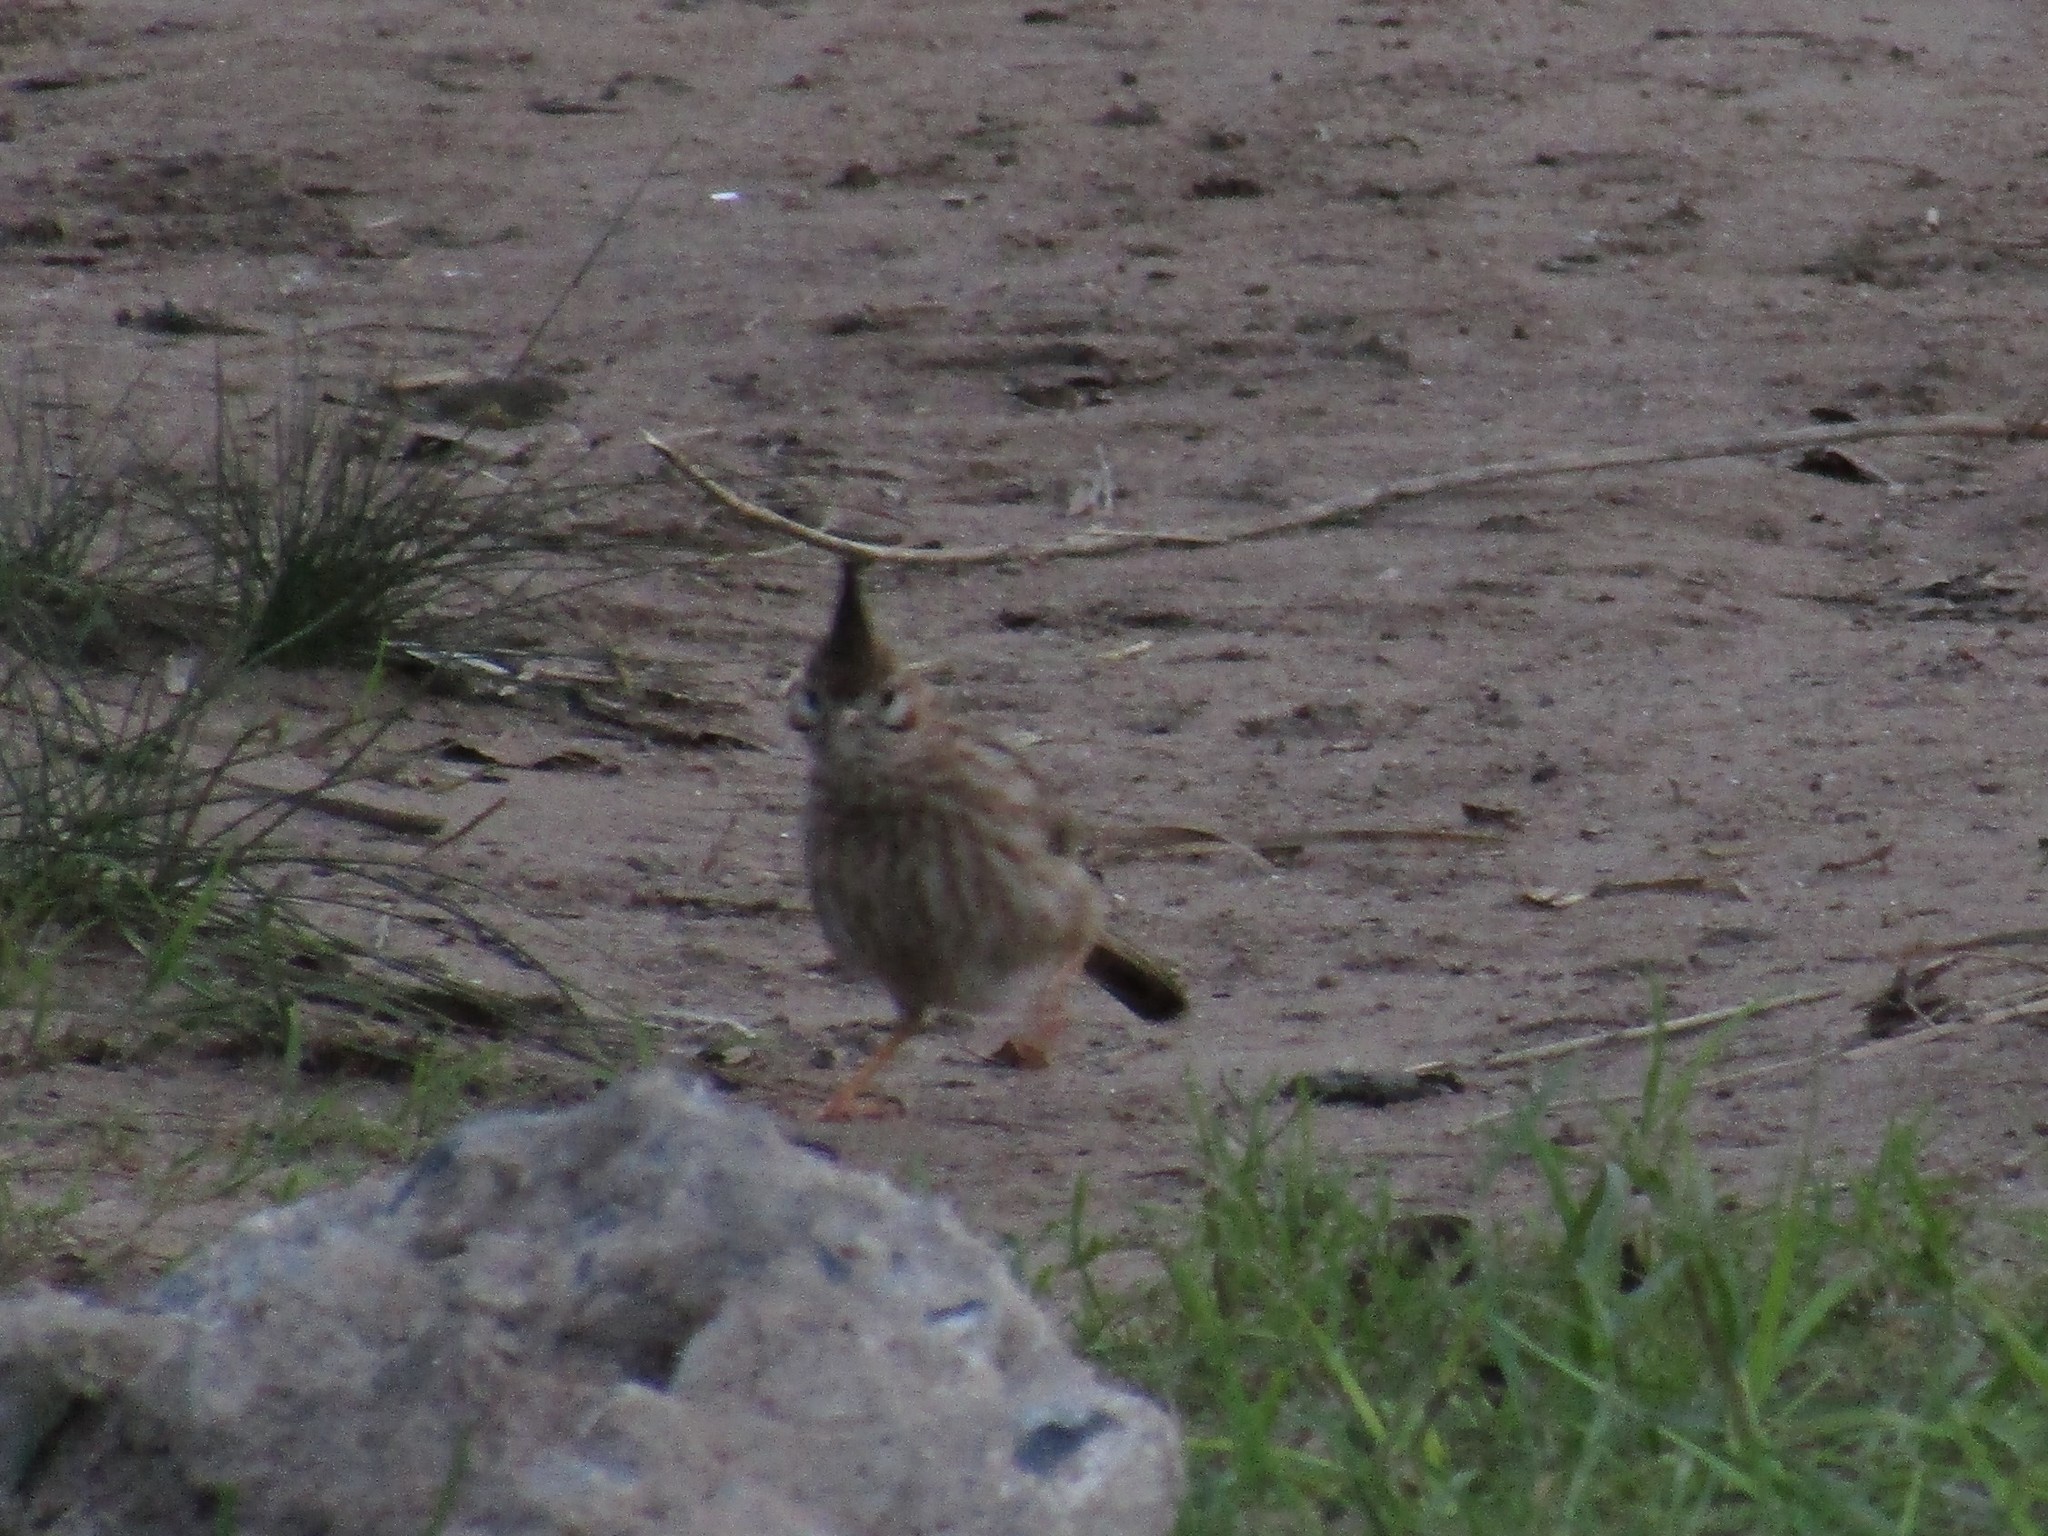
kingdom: Animalia
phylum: Chordata
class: Aves
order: Passeriformes
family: Furnariidae
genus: Coryphistera
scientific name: Coryphistera alaudina
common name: Lark-like brushrunner
